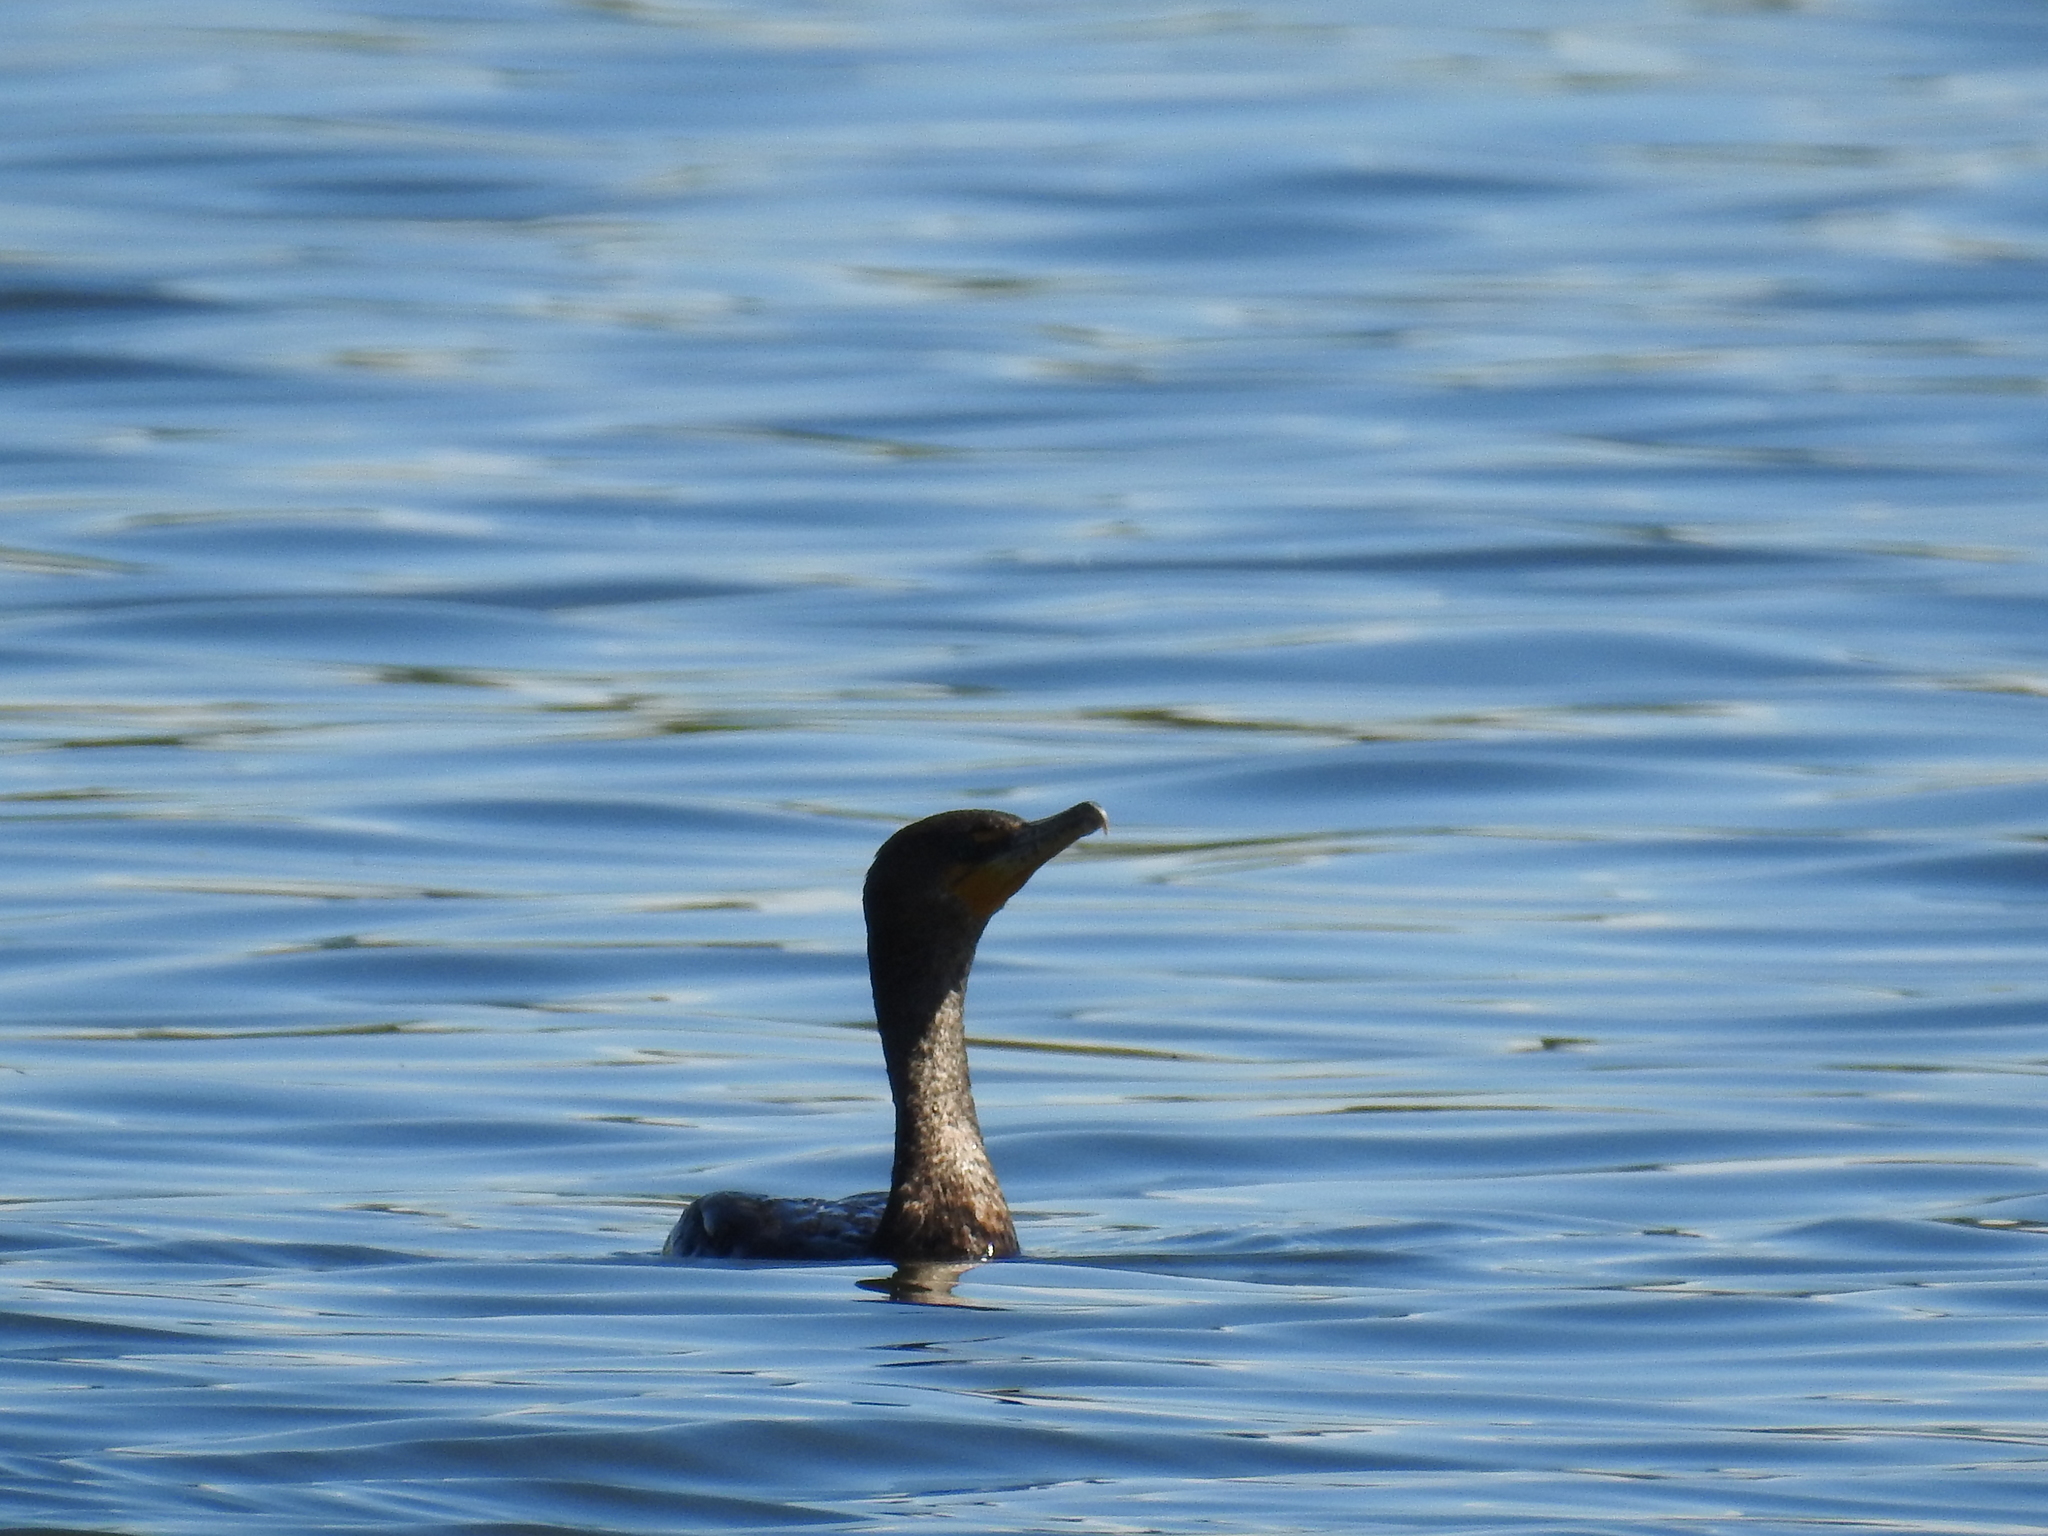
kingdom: Animalia
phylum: Chordata
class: Aves
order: Suliformes
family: Phalacrocoracidae
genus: Phalacrocorax
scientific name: Phalacrocorax auritus
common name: Double-crested cormorant
